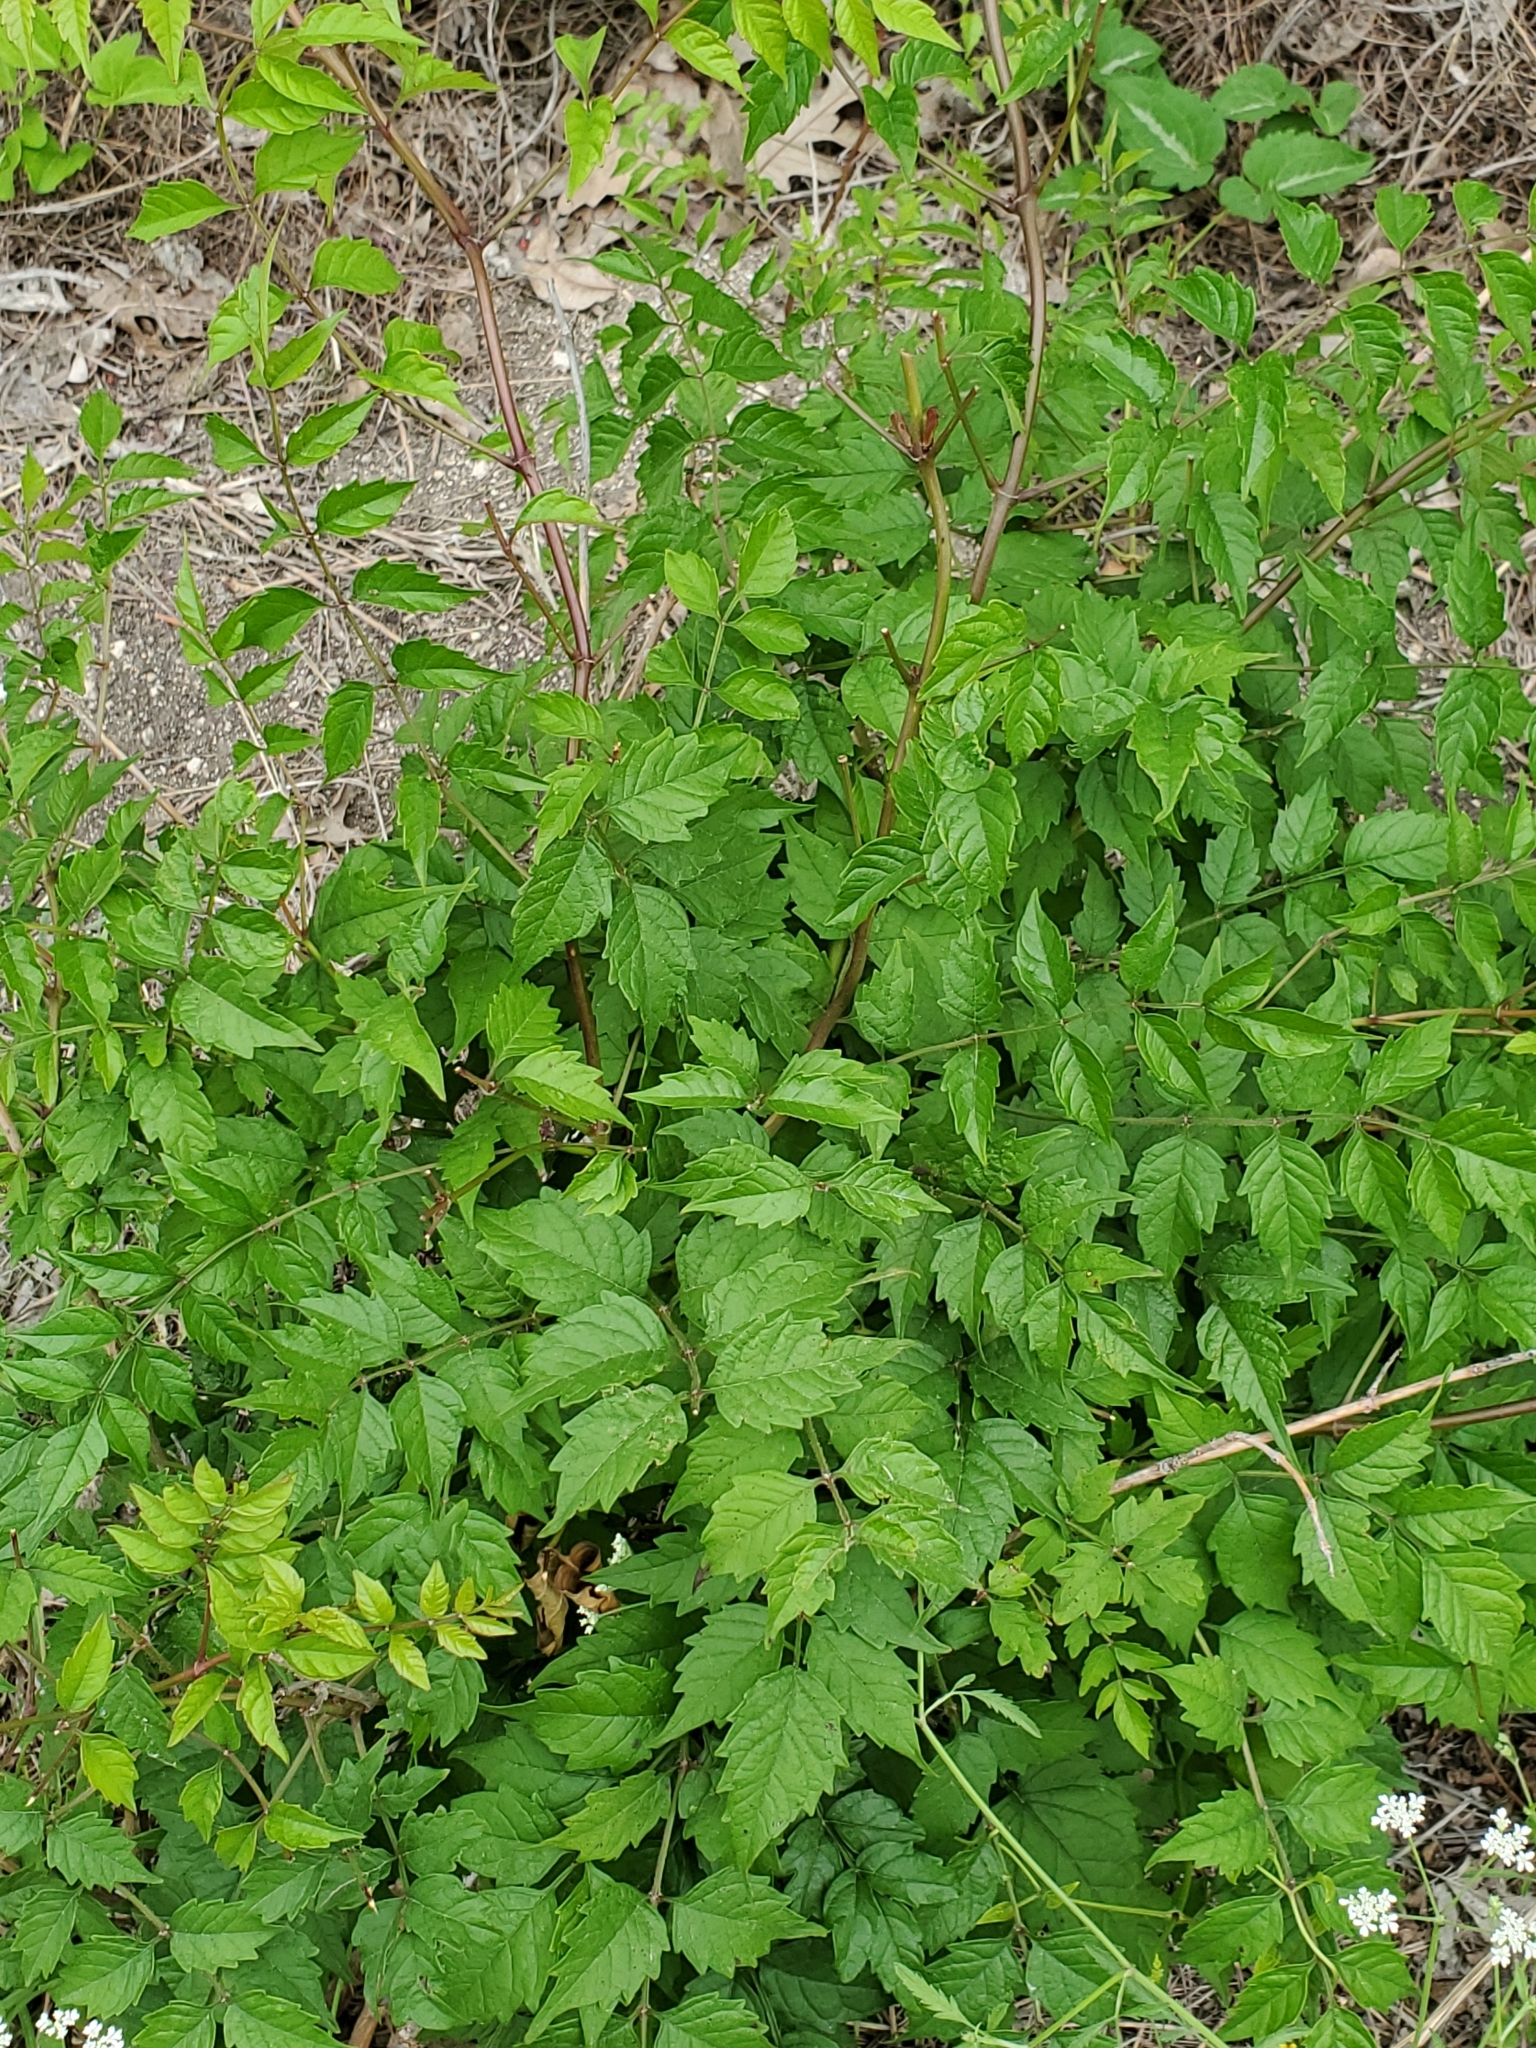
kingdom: Plantae
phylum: Tracheophyta
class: Magnoliopsida
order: Lamiales
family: Bignoniaceae
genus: Campsis
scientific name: Campsis radicans
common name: Trumpet-creeper
